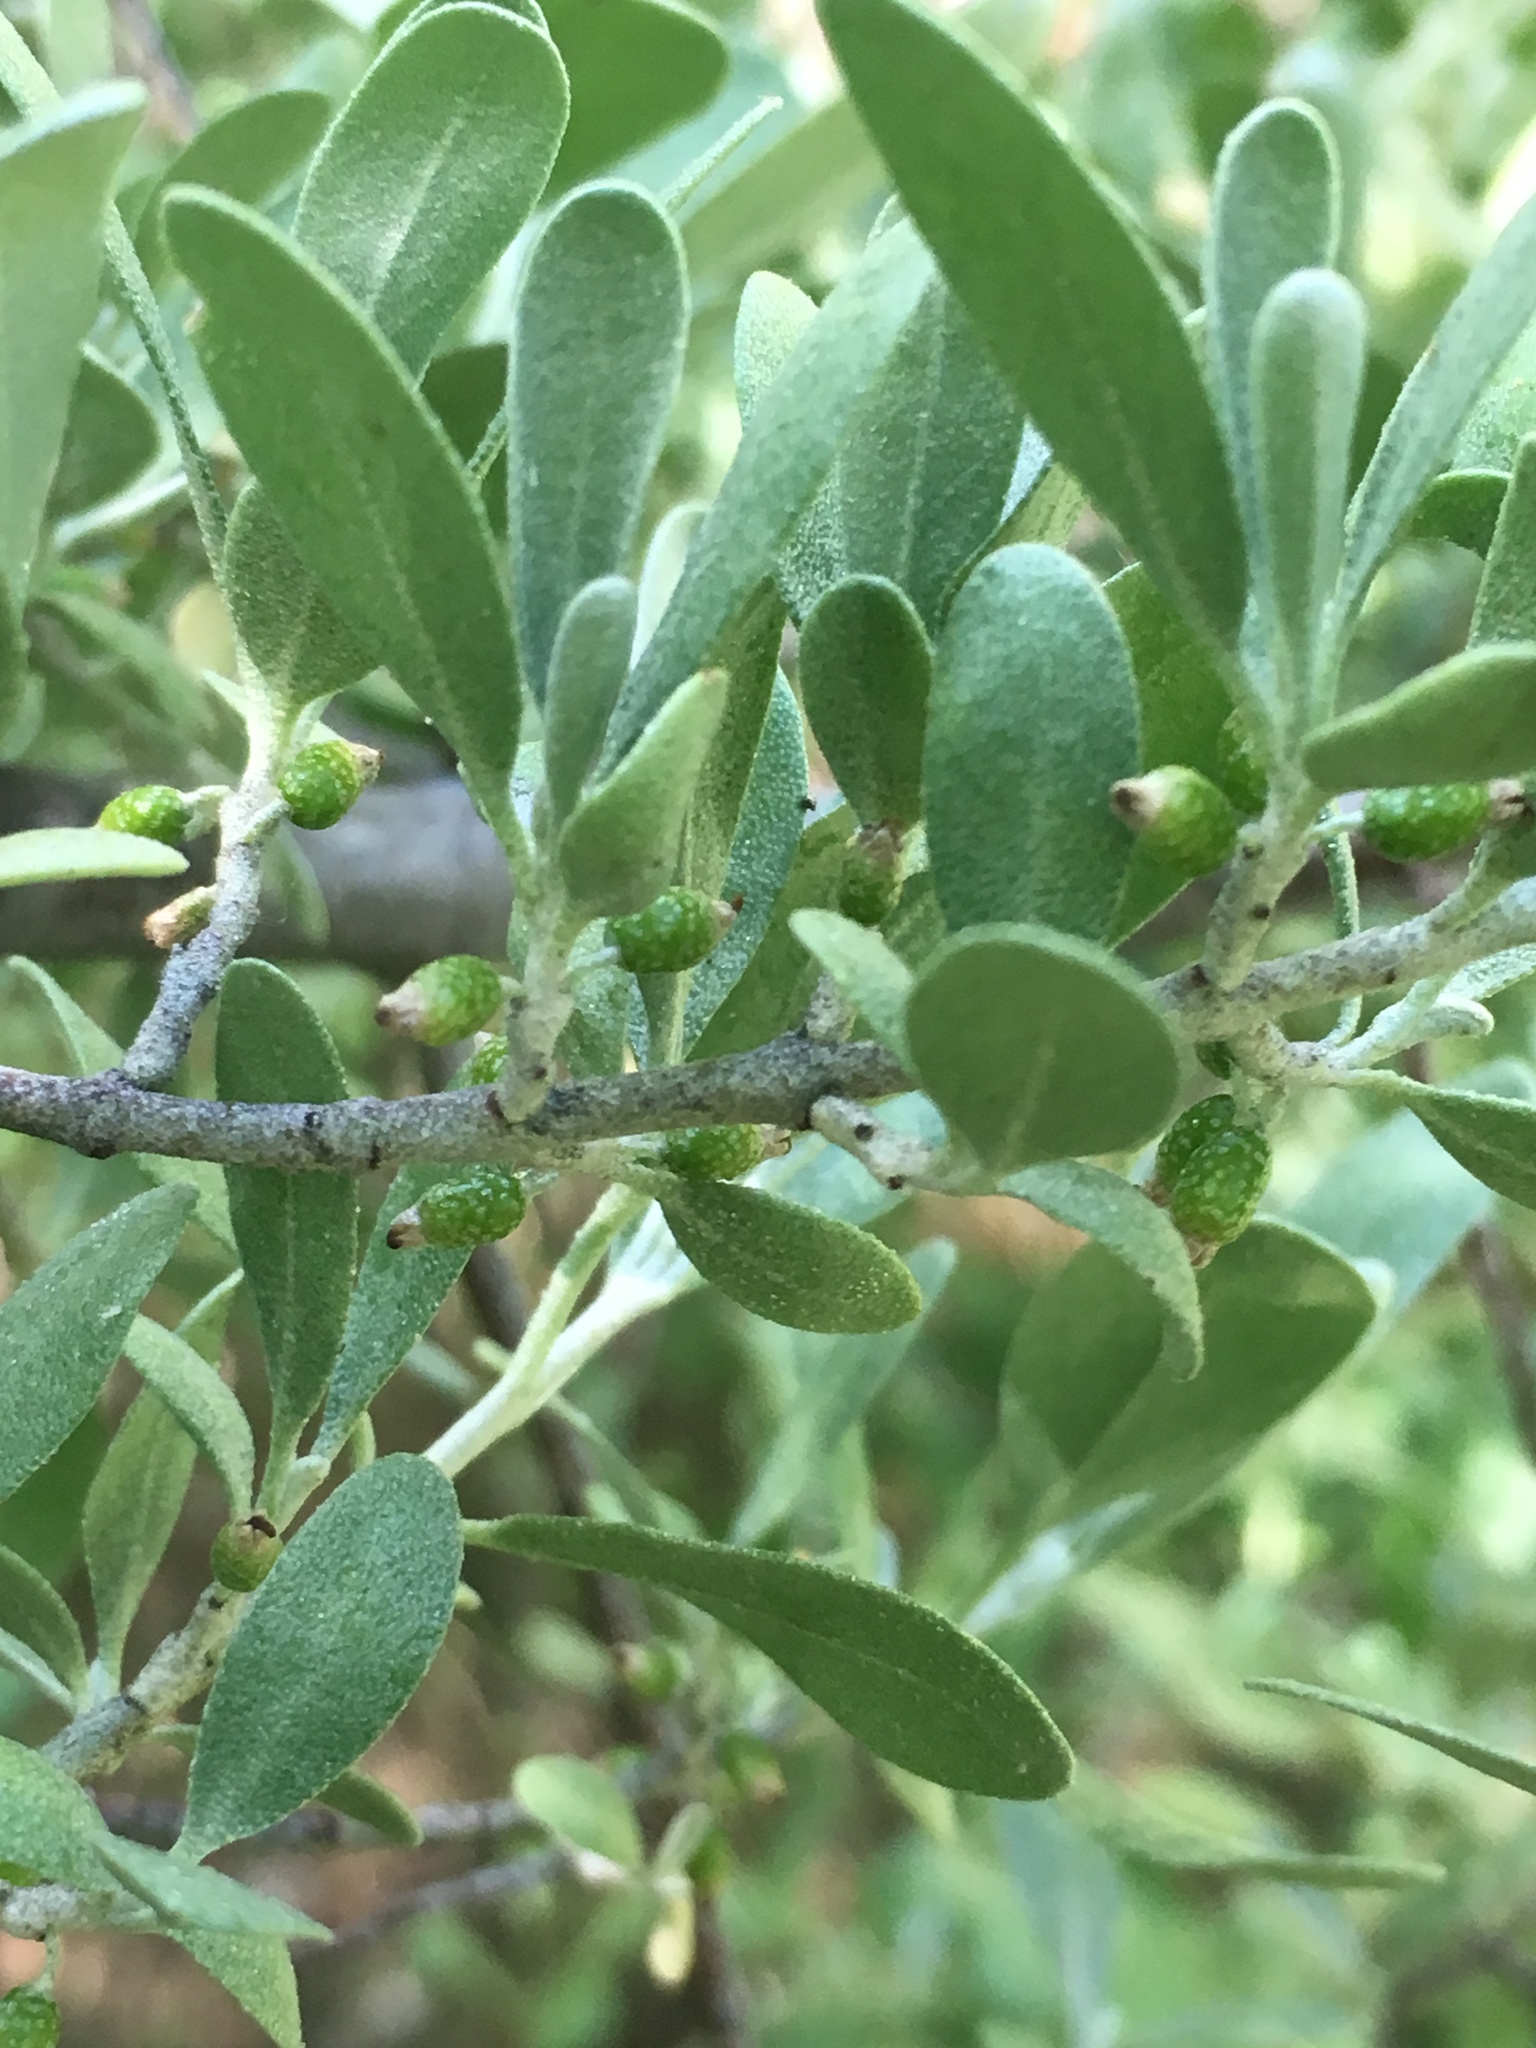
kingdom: Plantae
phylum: Tracheophyta
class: Magnoliopsida
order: Rosales
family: Elaeagnaceae
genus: Shepherdia
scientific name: Shepherdia argentea
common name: Silver buffaloberry
